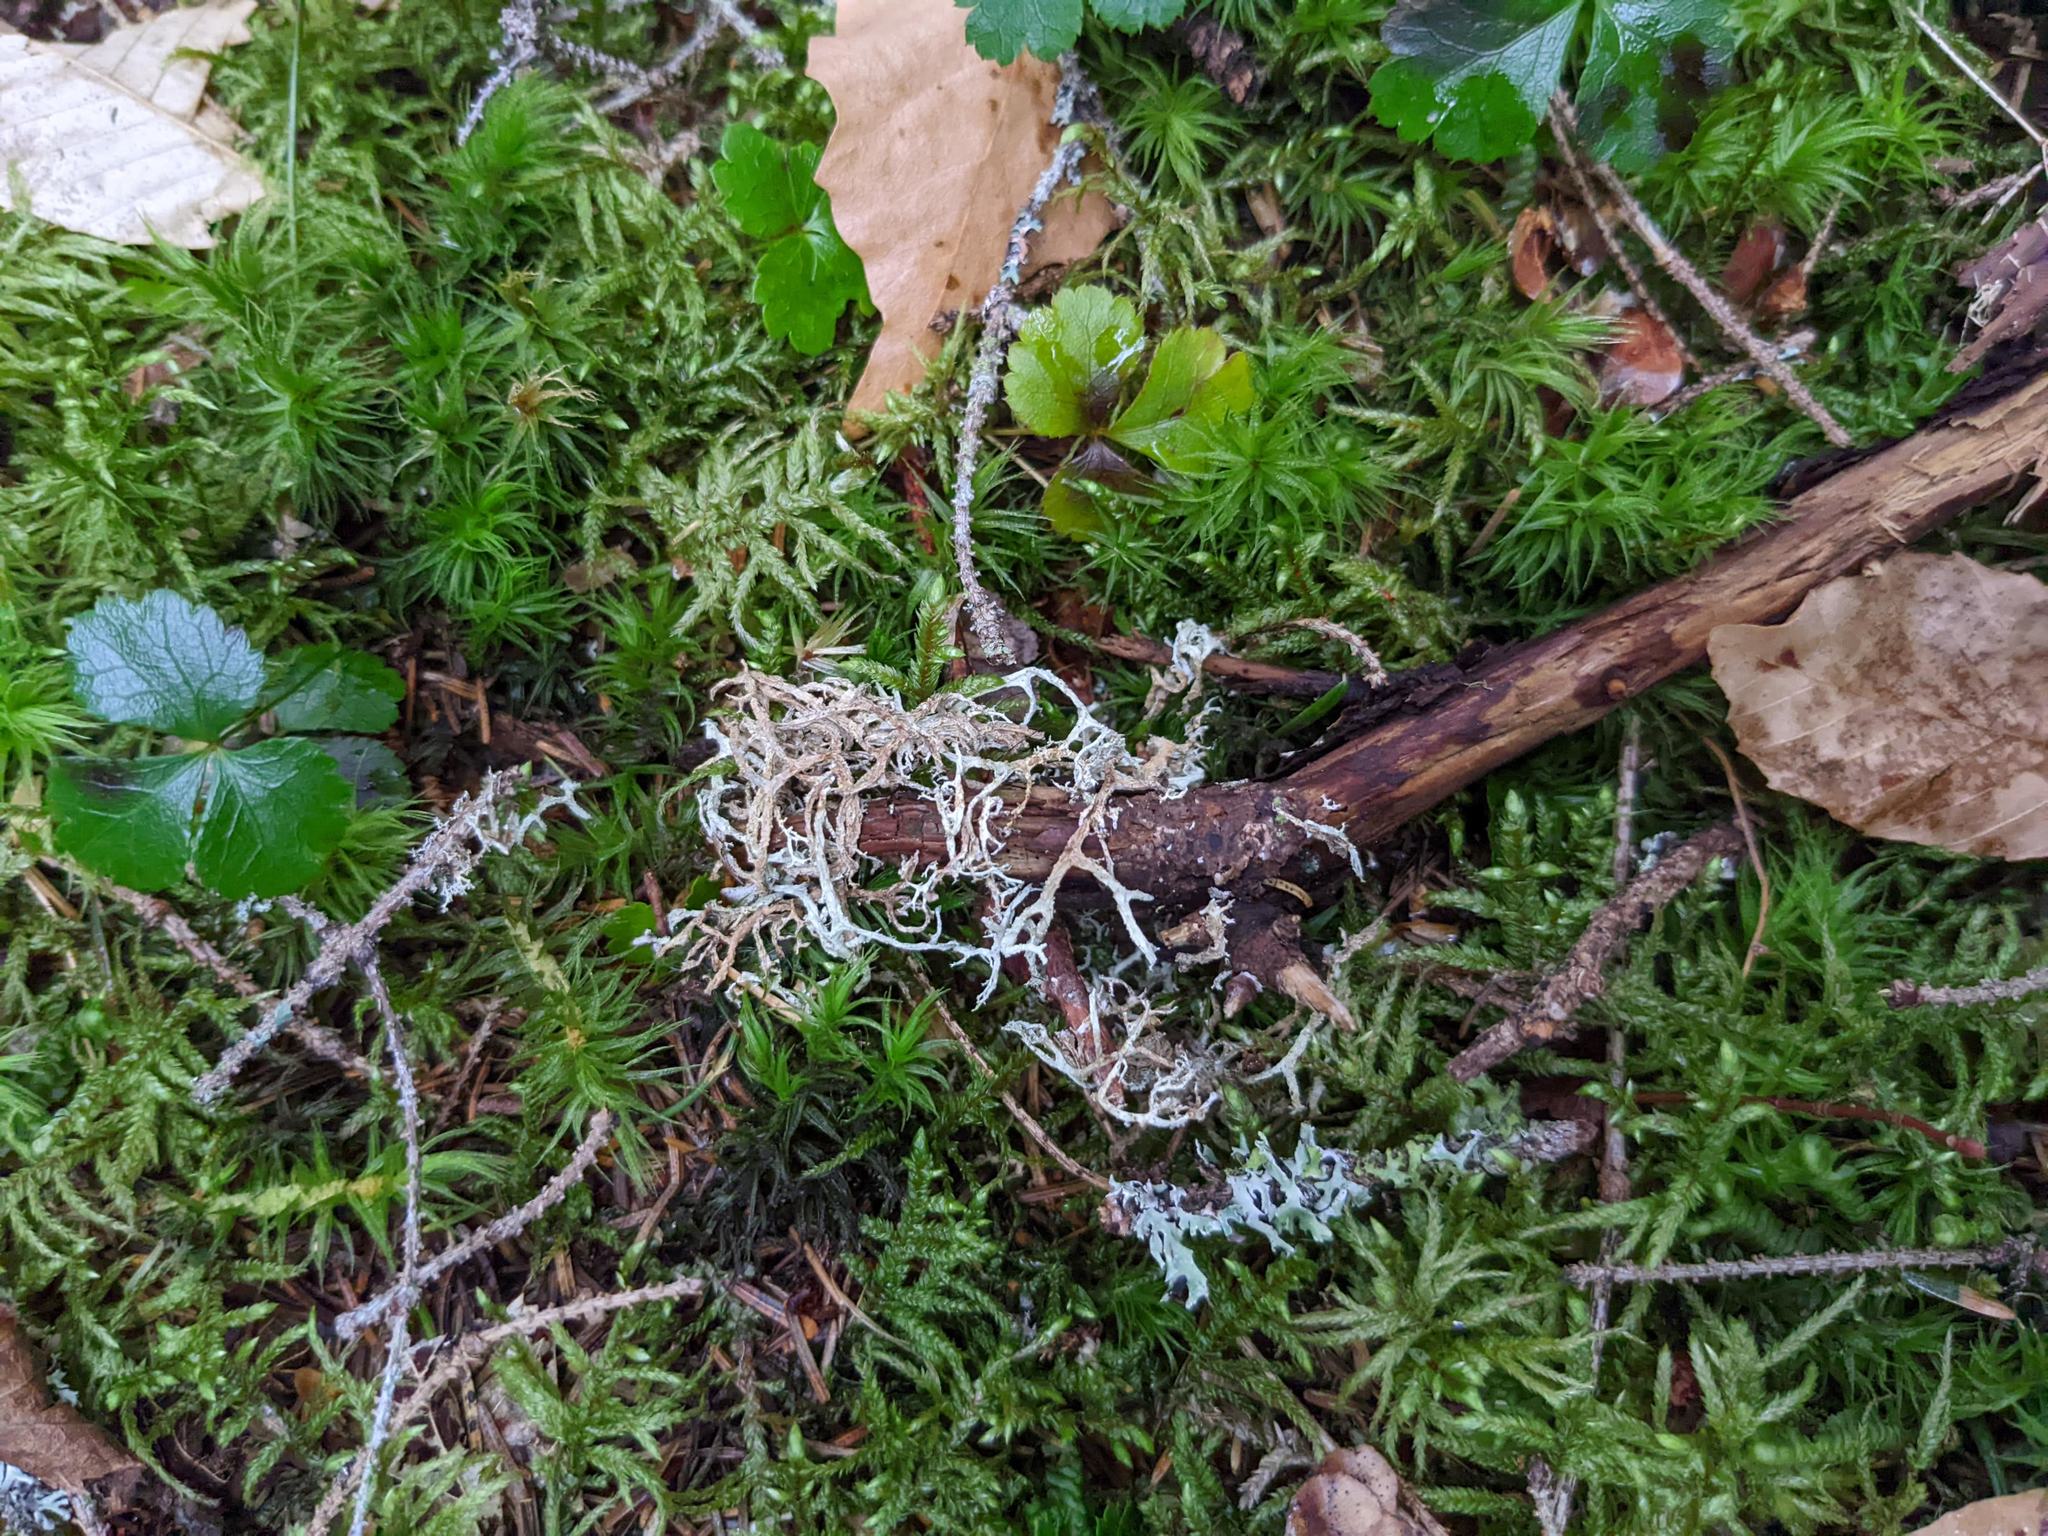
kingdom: Plantae
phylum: Tracheophyta
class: Magnoliopsida
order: Ranunculales
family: Ranunculaceae
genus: Coptis
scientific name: Coptis trifolia
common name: Canker-root
